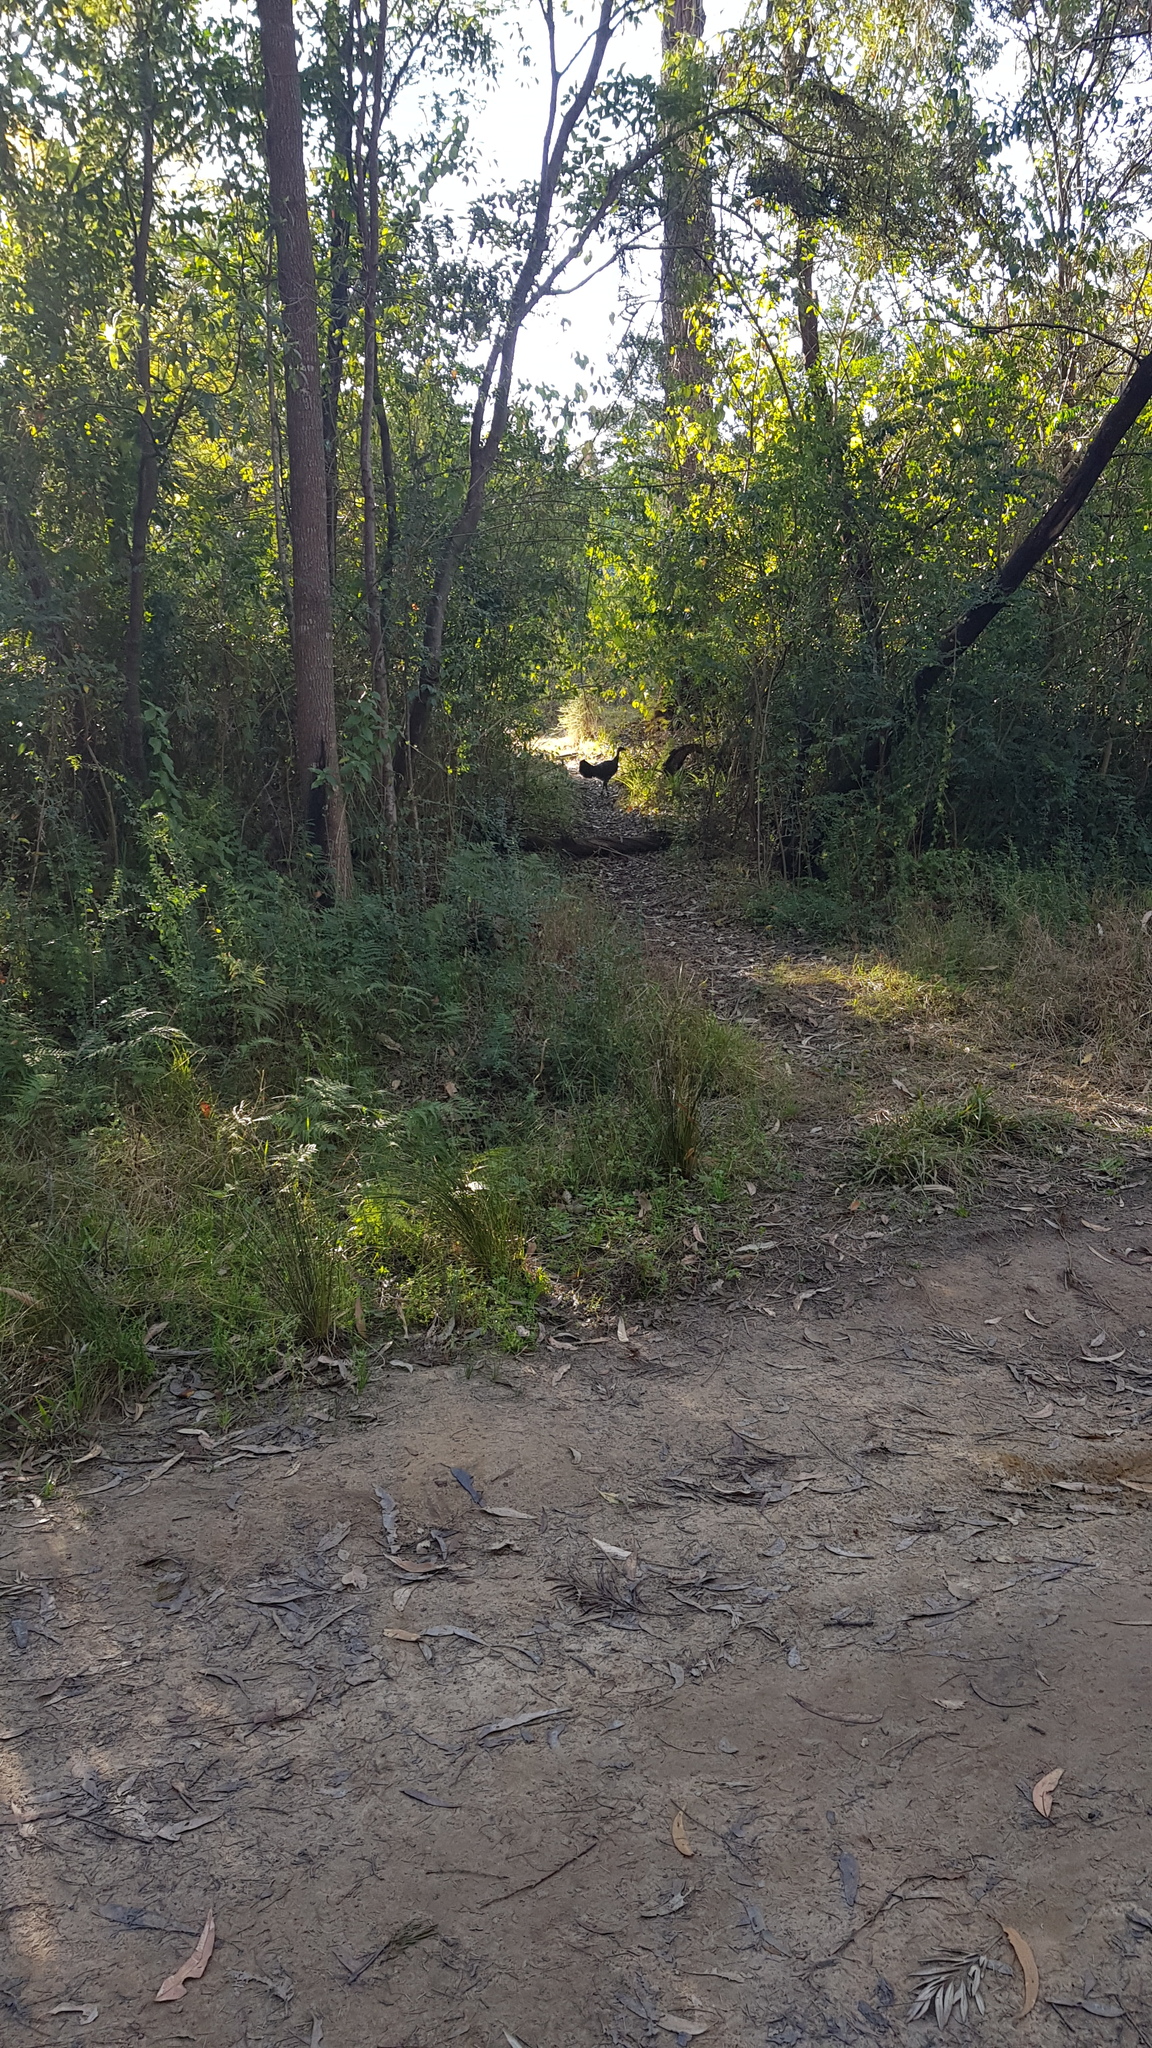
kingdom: Animalia
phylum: Chordata
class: Aves
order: Galliformes
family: Megapodiidae
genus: Alectura
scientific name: Alectura lathami
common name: Australian brushturkey
